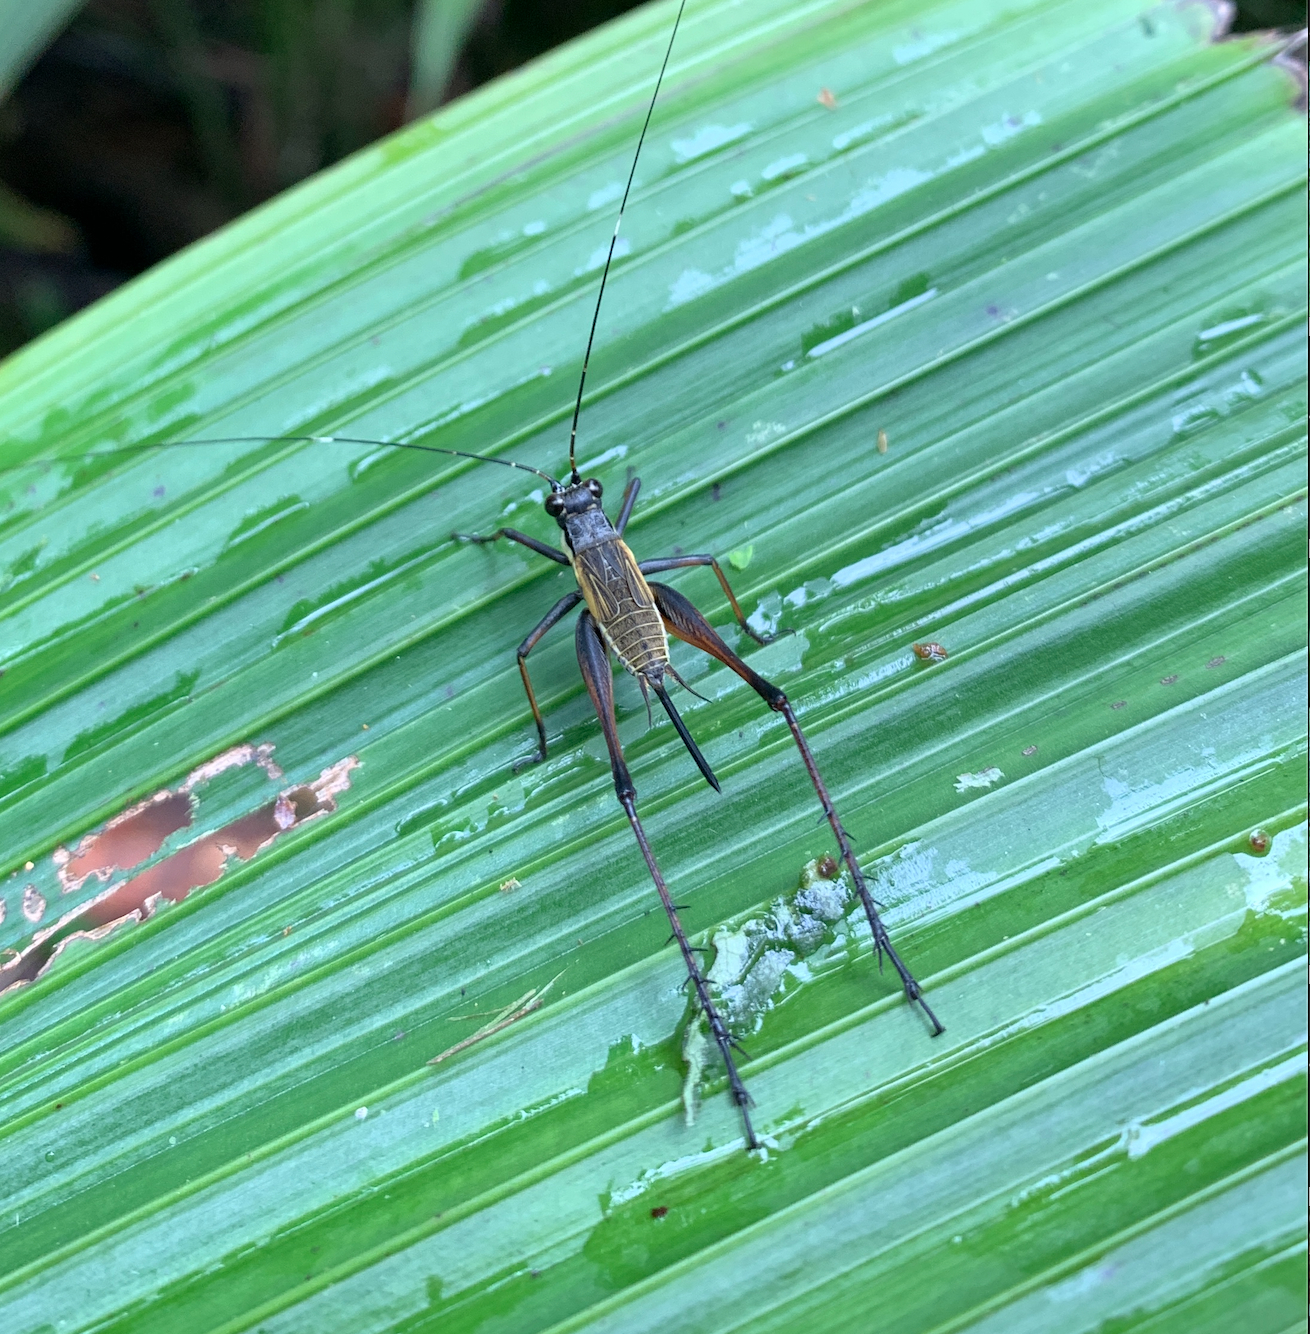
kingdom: Animalia
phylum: Arthropoda
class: Insecta
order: Orthoptera
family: Gryllidae
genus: Nisitrus
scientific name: Nisitrus musicus
